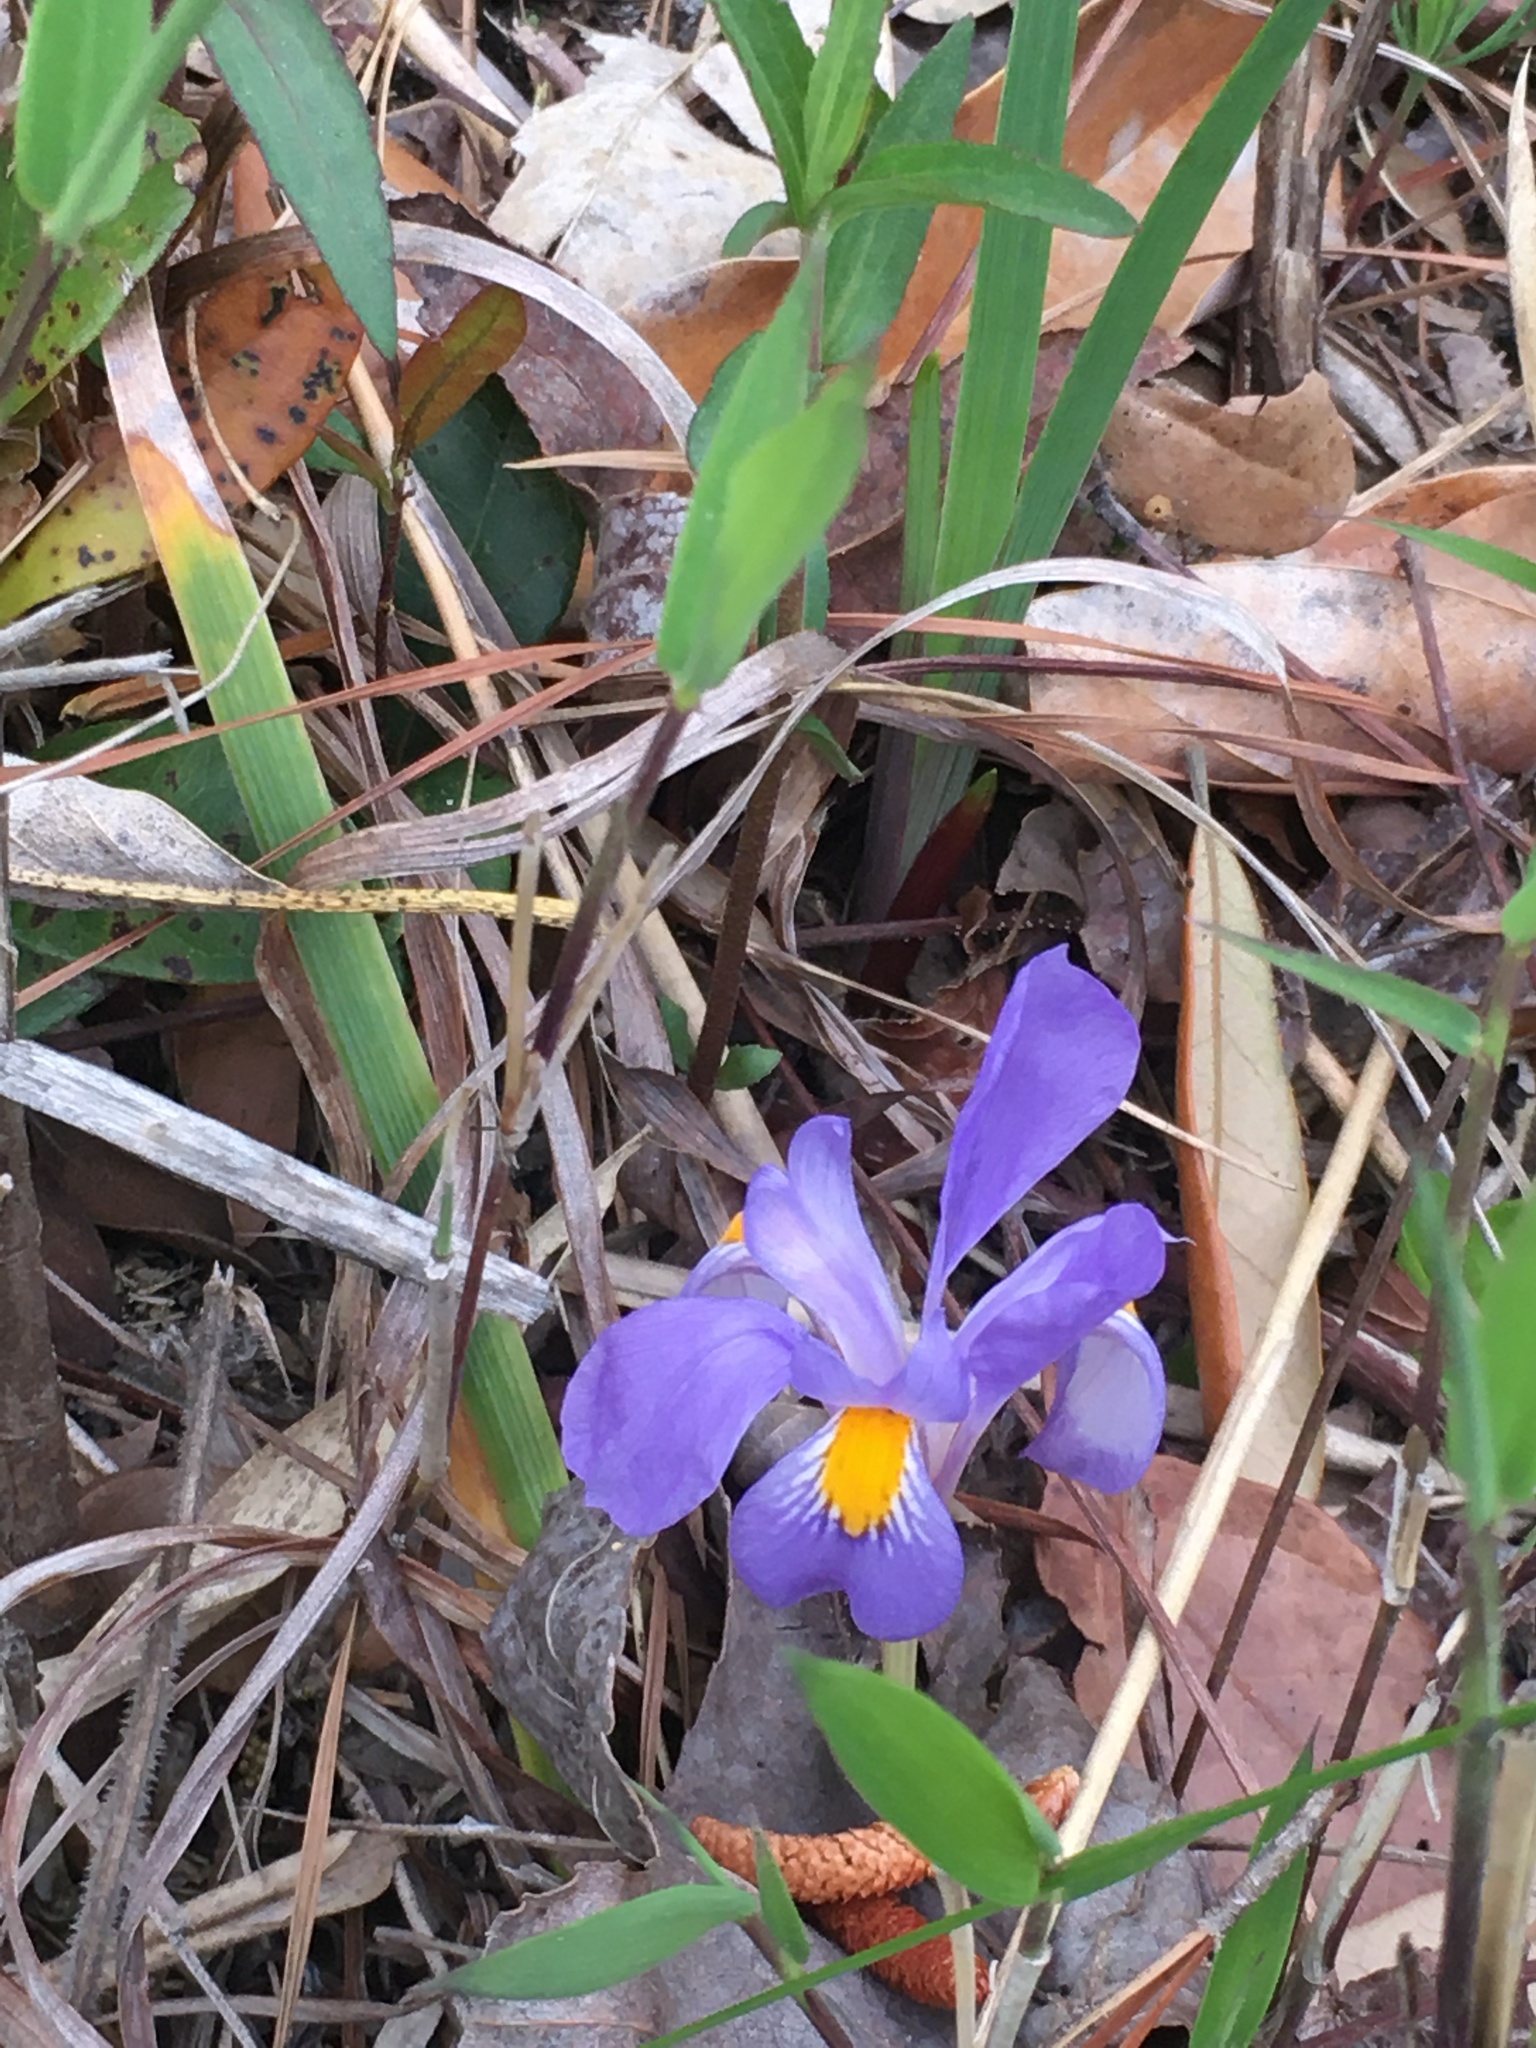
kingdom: Plantae
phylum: Tracheophyta
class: Liliopsida
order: Asparagales
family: Iridaceae
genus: Iris
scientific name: Iris verna
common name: Dwarf iris
